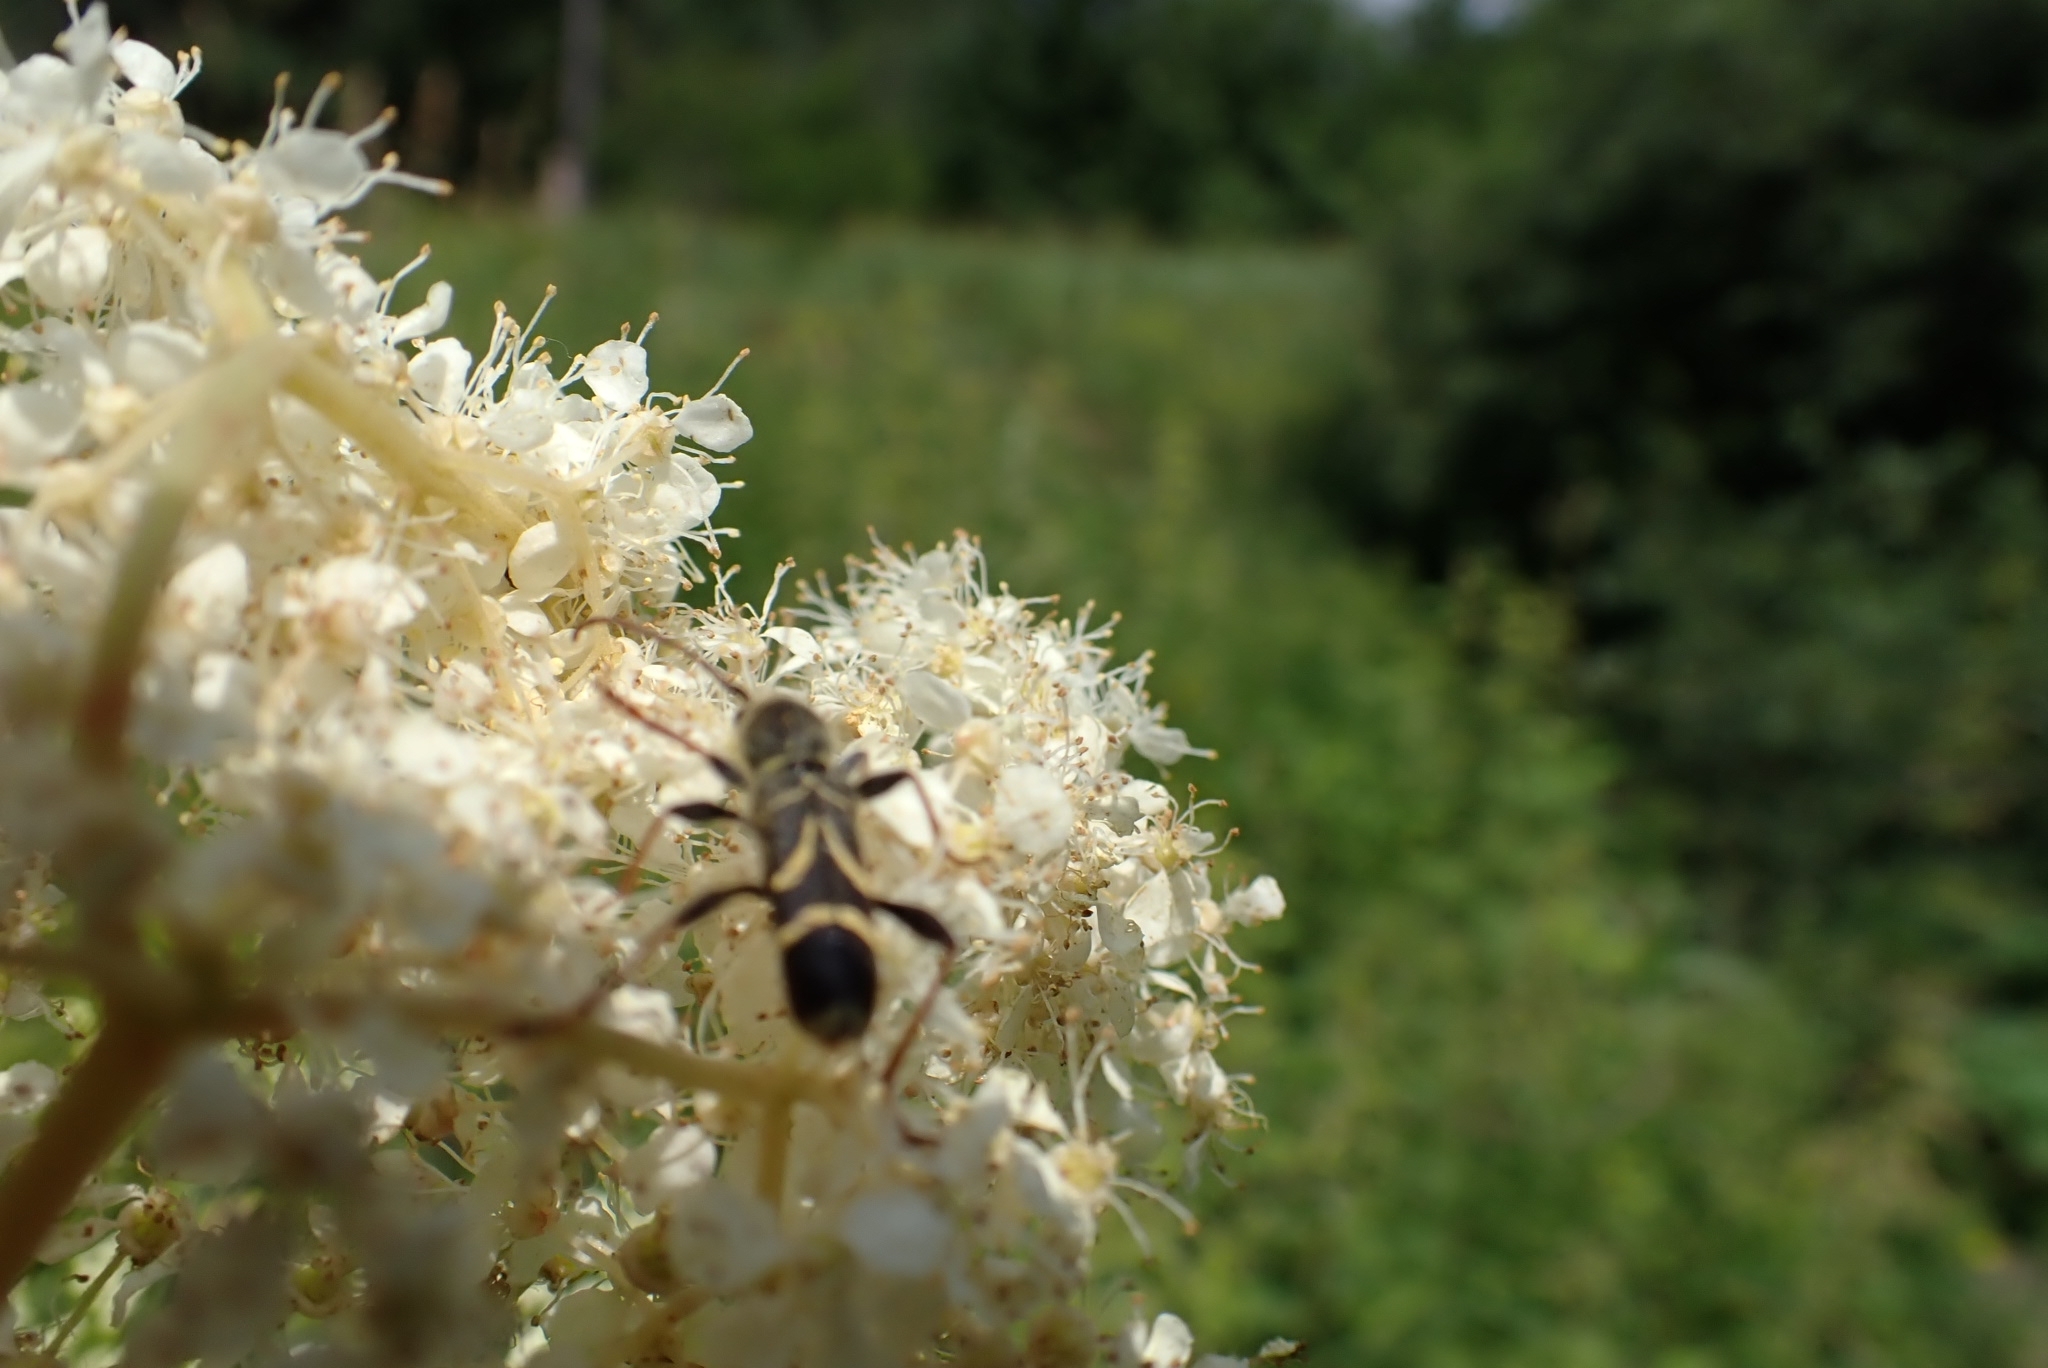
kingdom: Animalia
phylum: Arthropoda
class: Insecta
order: Coleoptera
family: Cerambycidae
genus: Cyrtoclytus
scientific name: Cyrtoclytus capra
